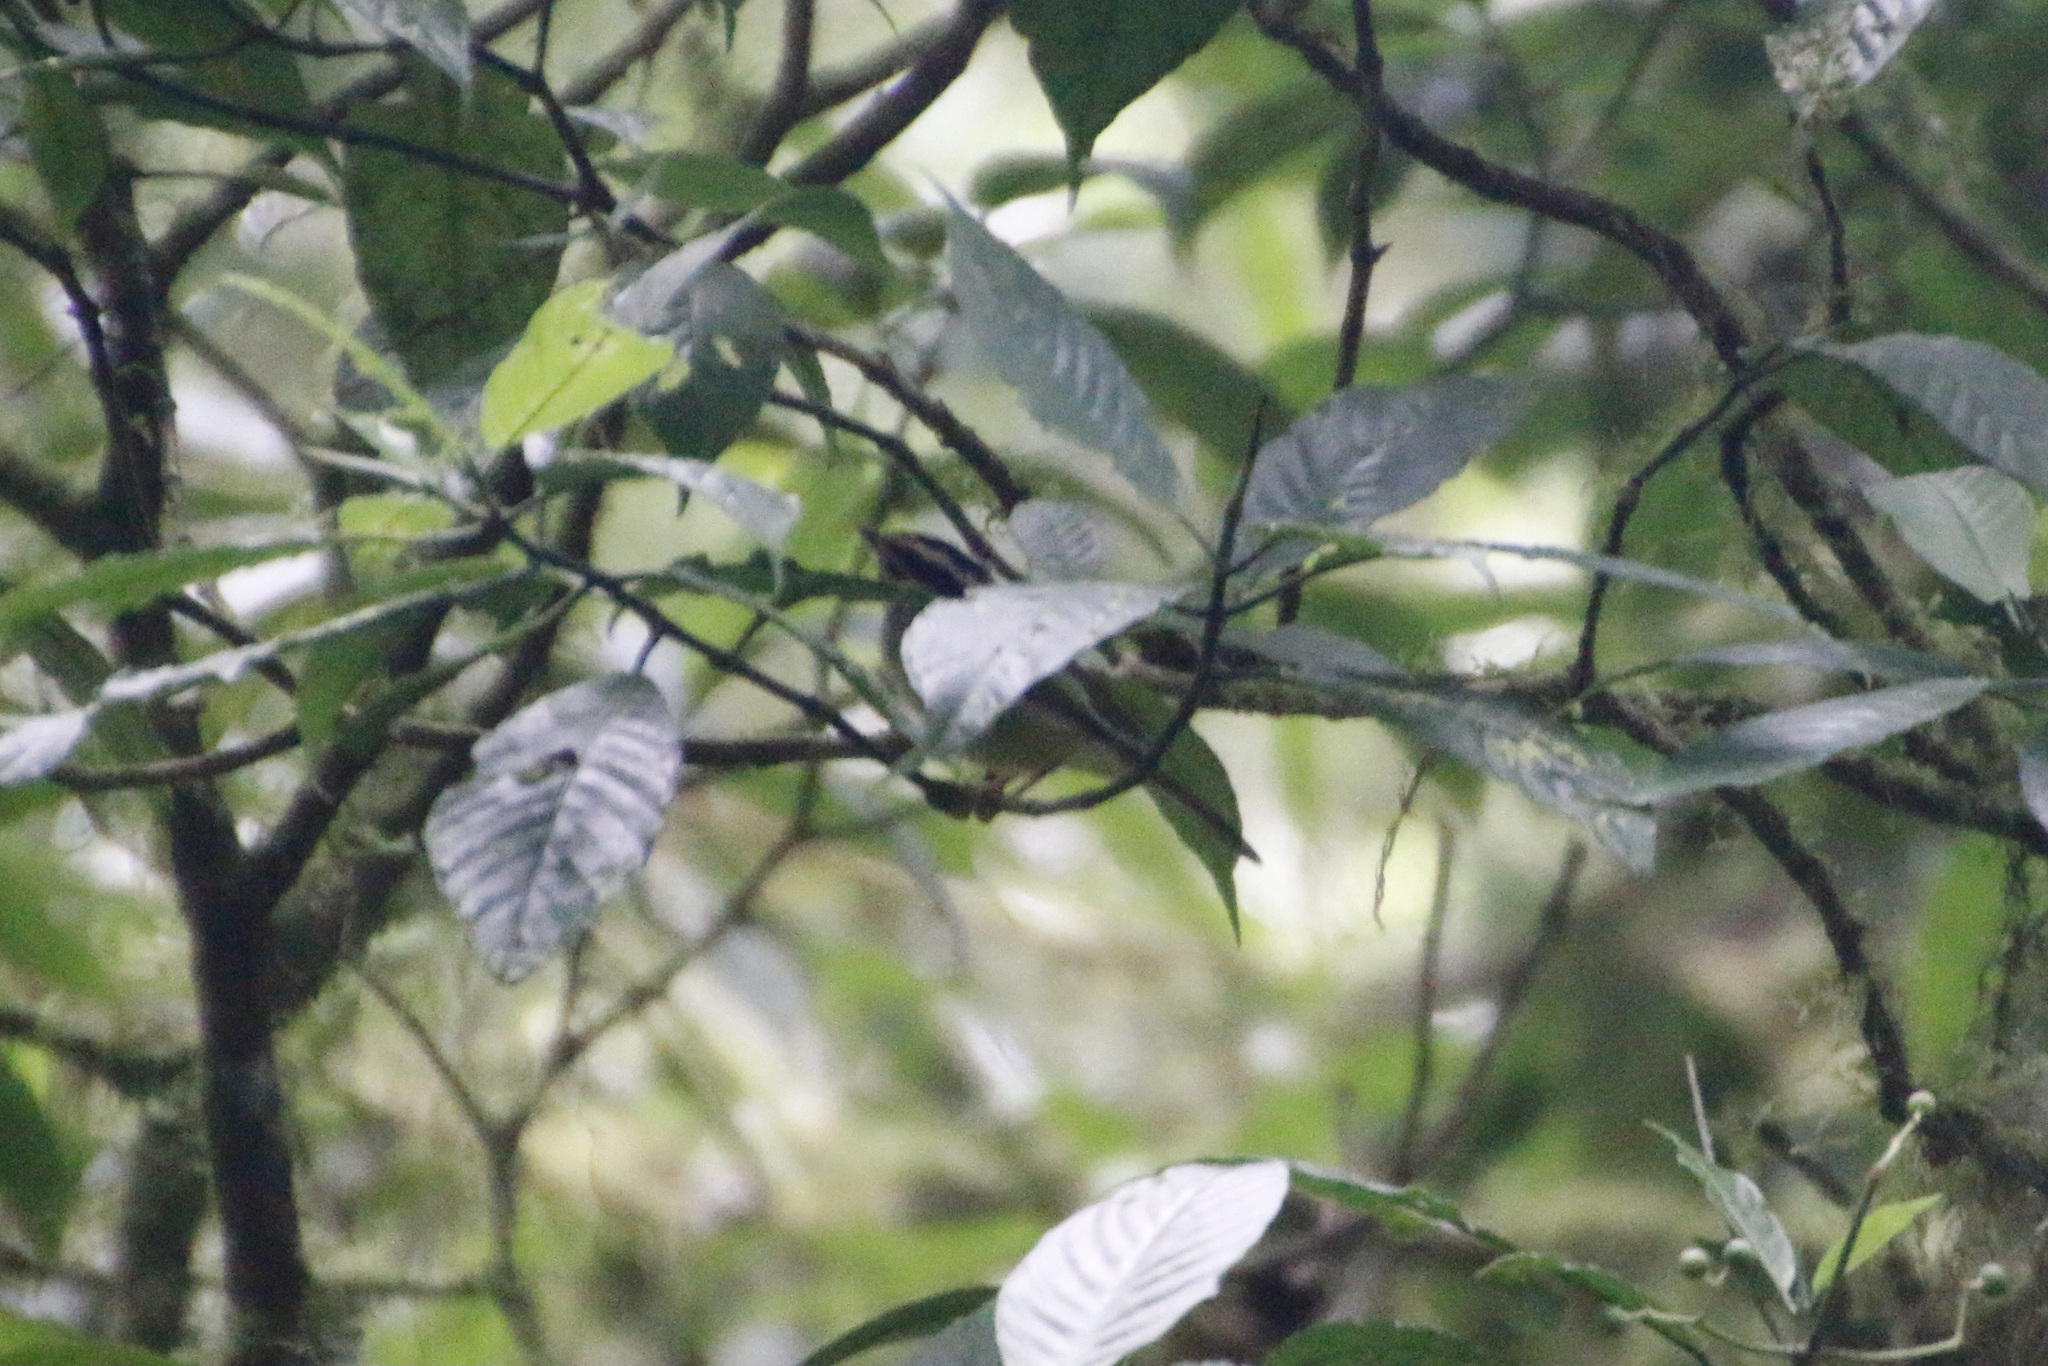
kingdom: Animalia
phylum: Chordata
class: Aves
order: Passeriformes
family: Parulidae
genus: Basileuterus
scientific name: Basileuterus culicivorus
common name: Golden-crowned warbler
